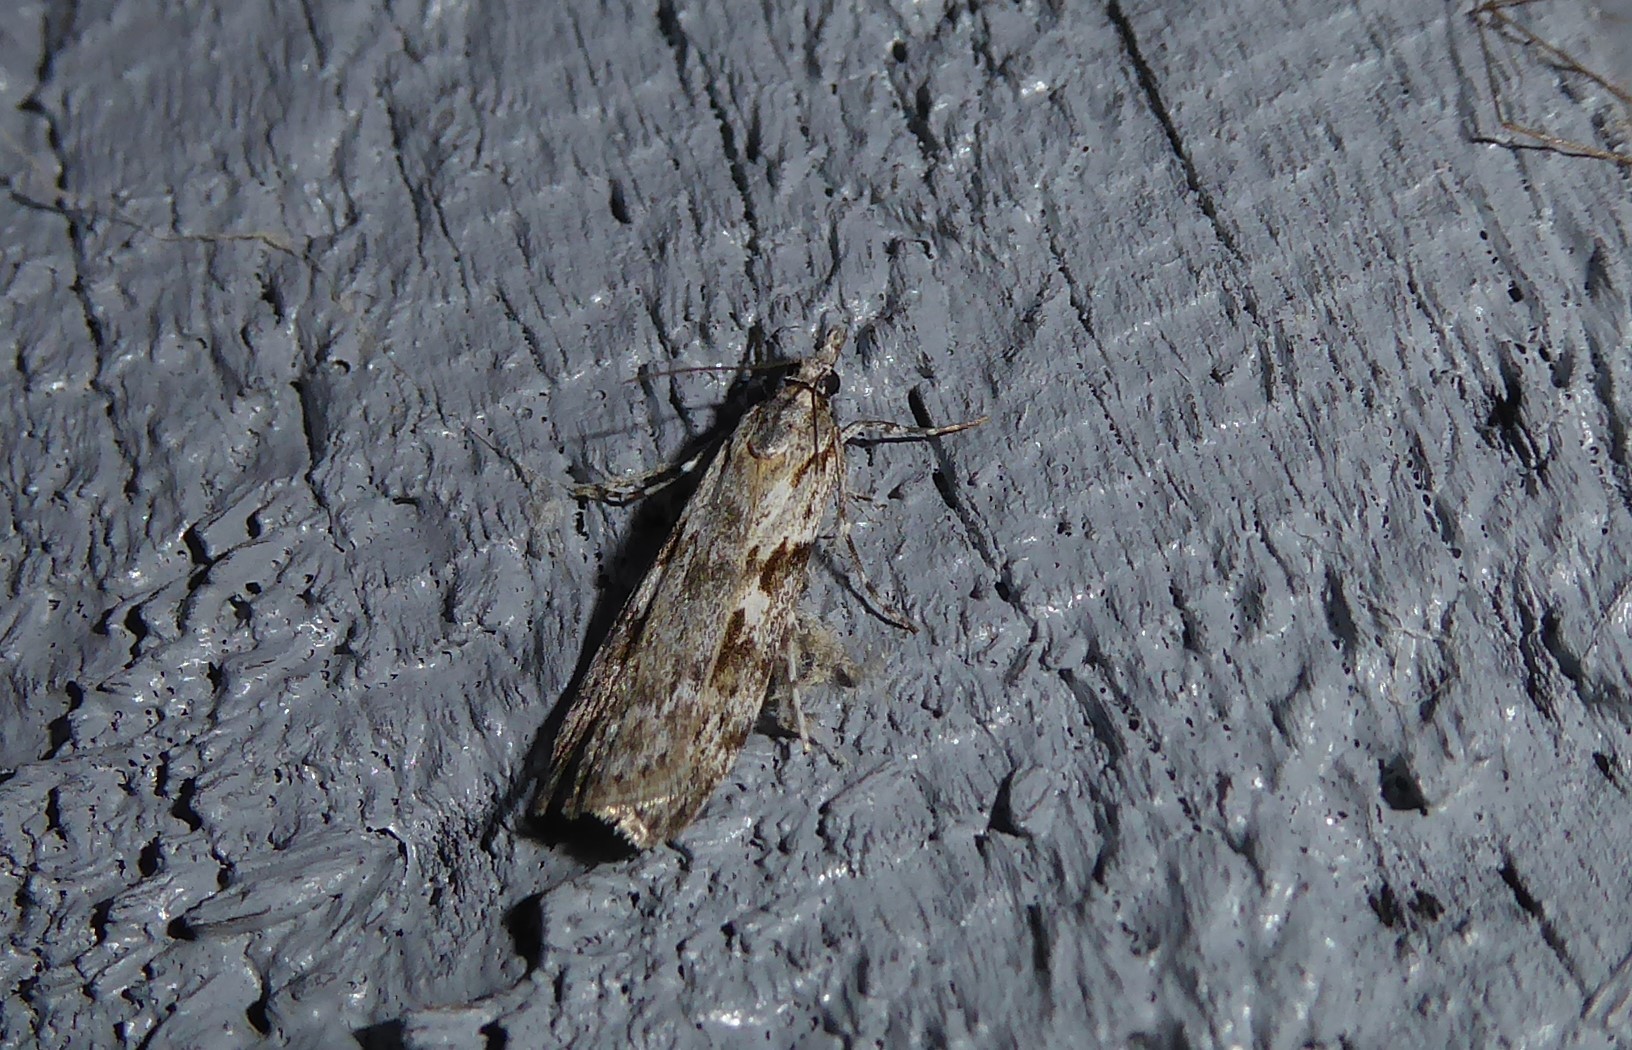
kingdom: Animalia
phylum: Arthropoda
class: Insecta
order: Lepidoptera
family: Crambidae
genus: Scoparia
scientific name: Scoparia halopis
